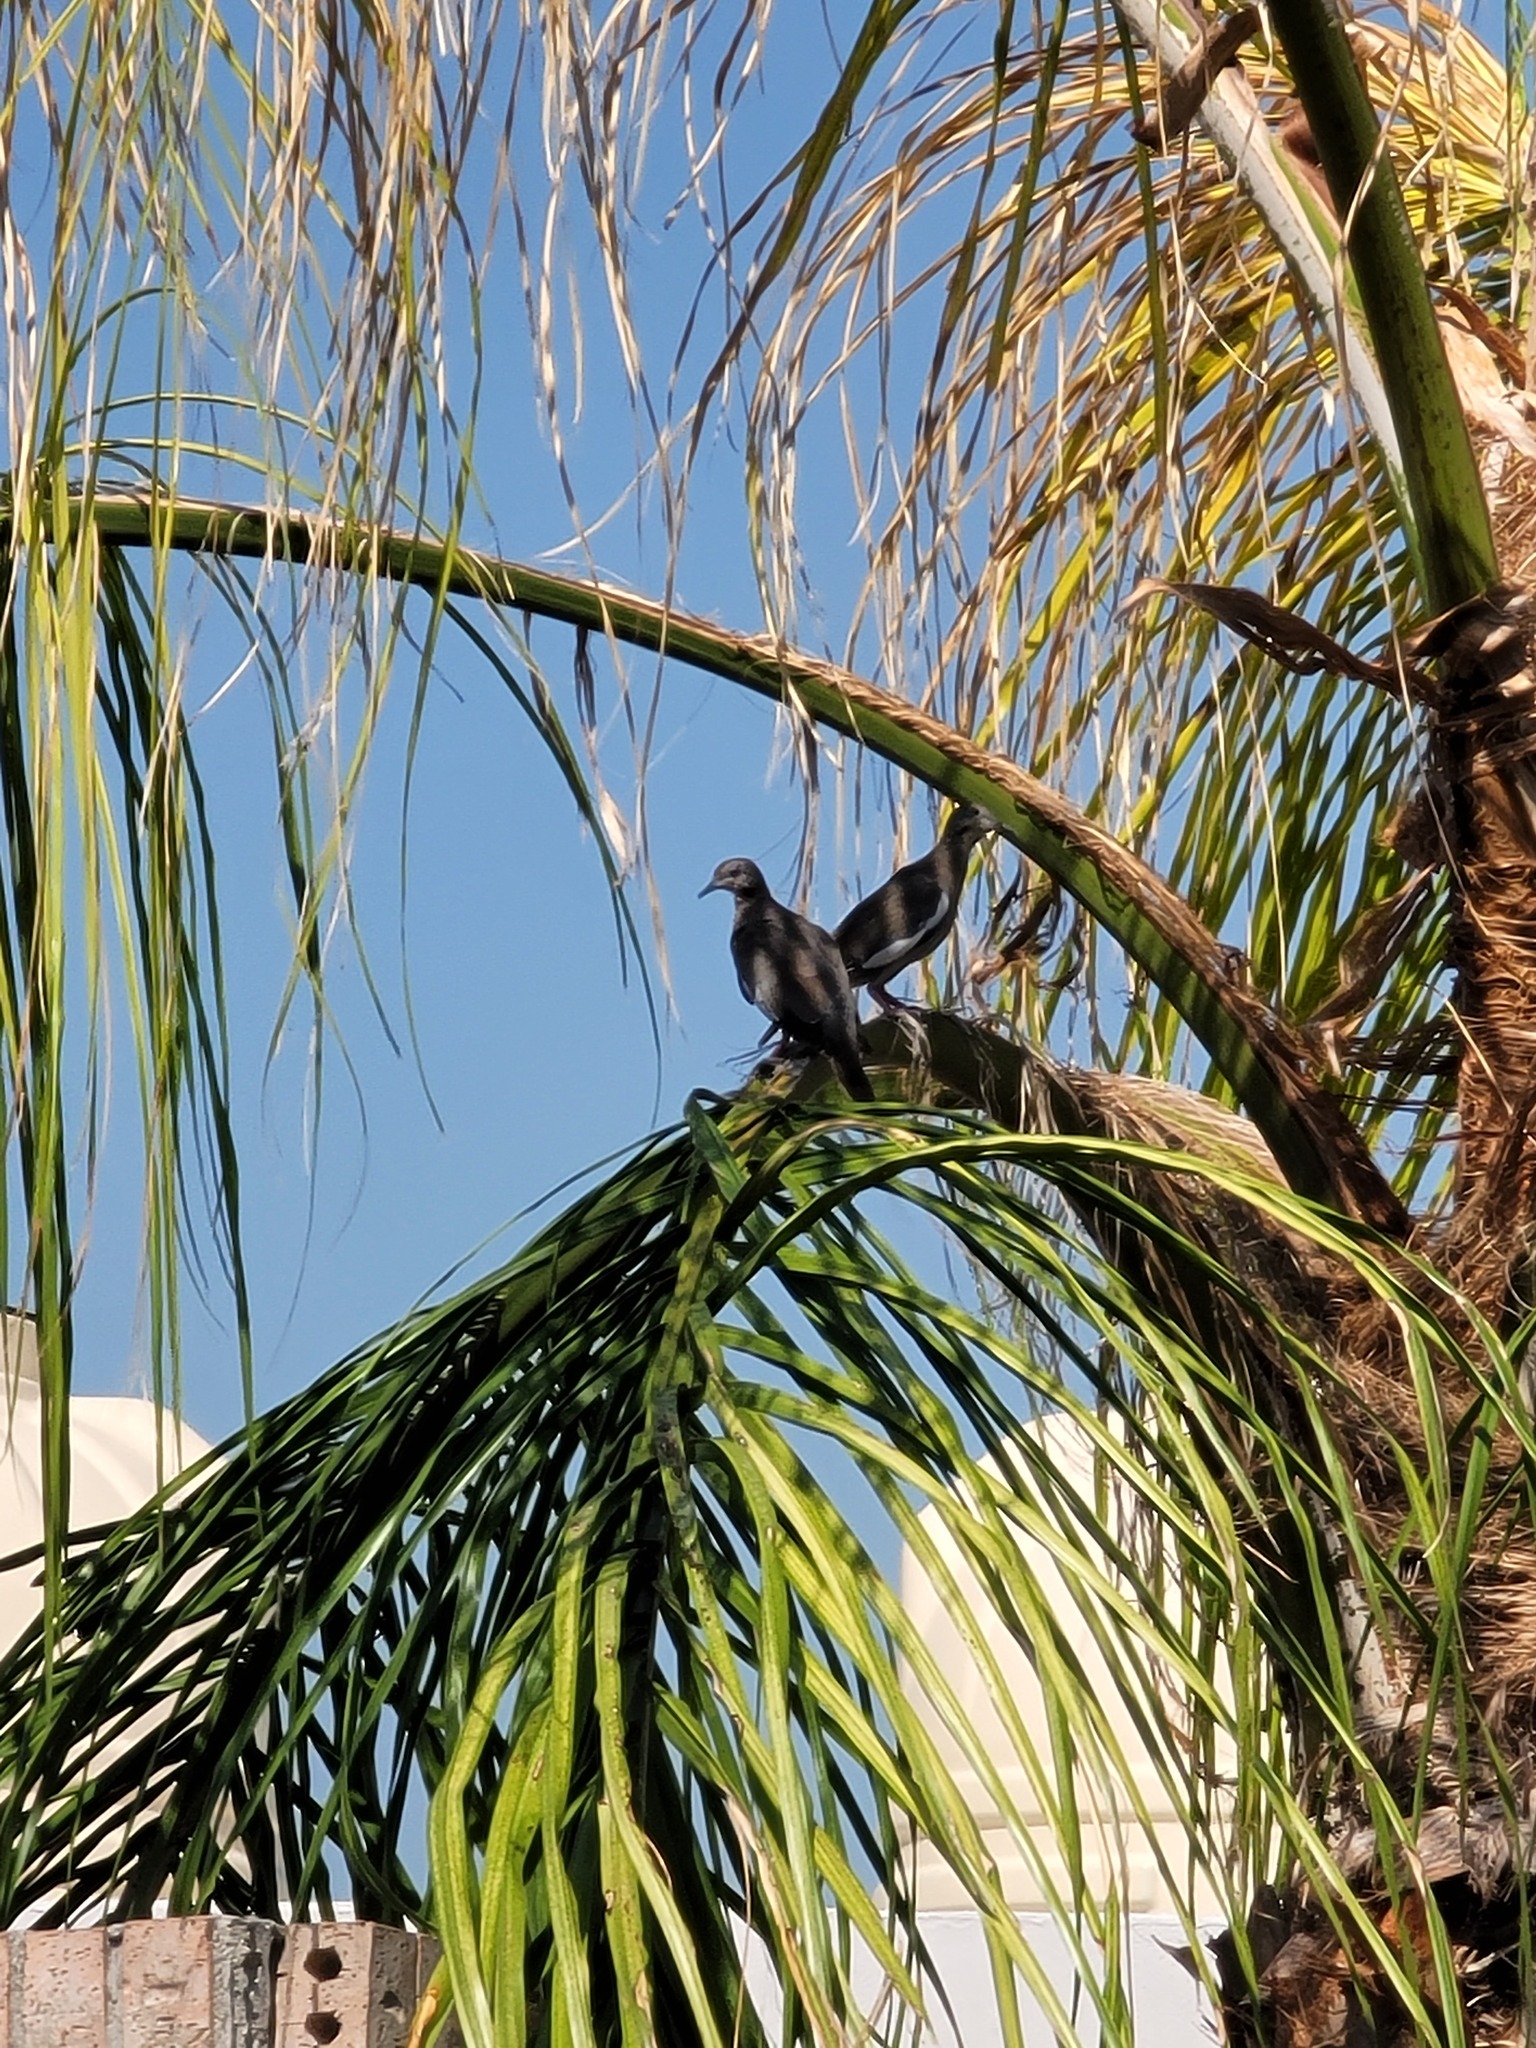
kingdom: Animalia
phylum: Chordata
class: Aves
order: Columbiformes
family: Columbidae
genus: Zenaida
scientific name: Zenaida asiatica
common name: White-winged dove
